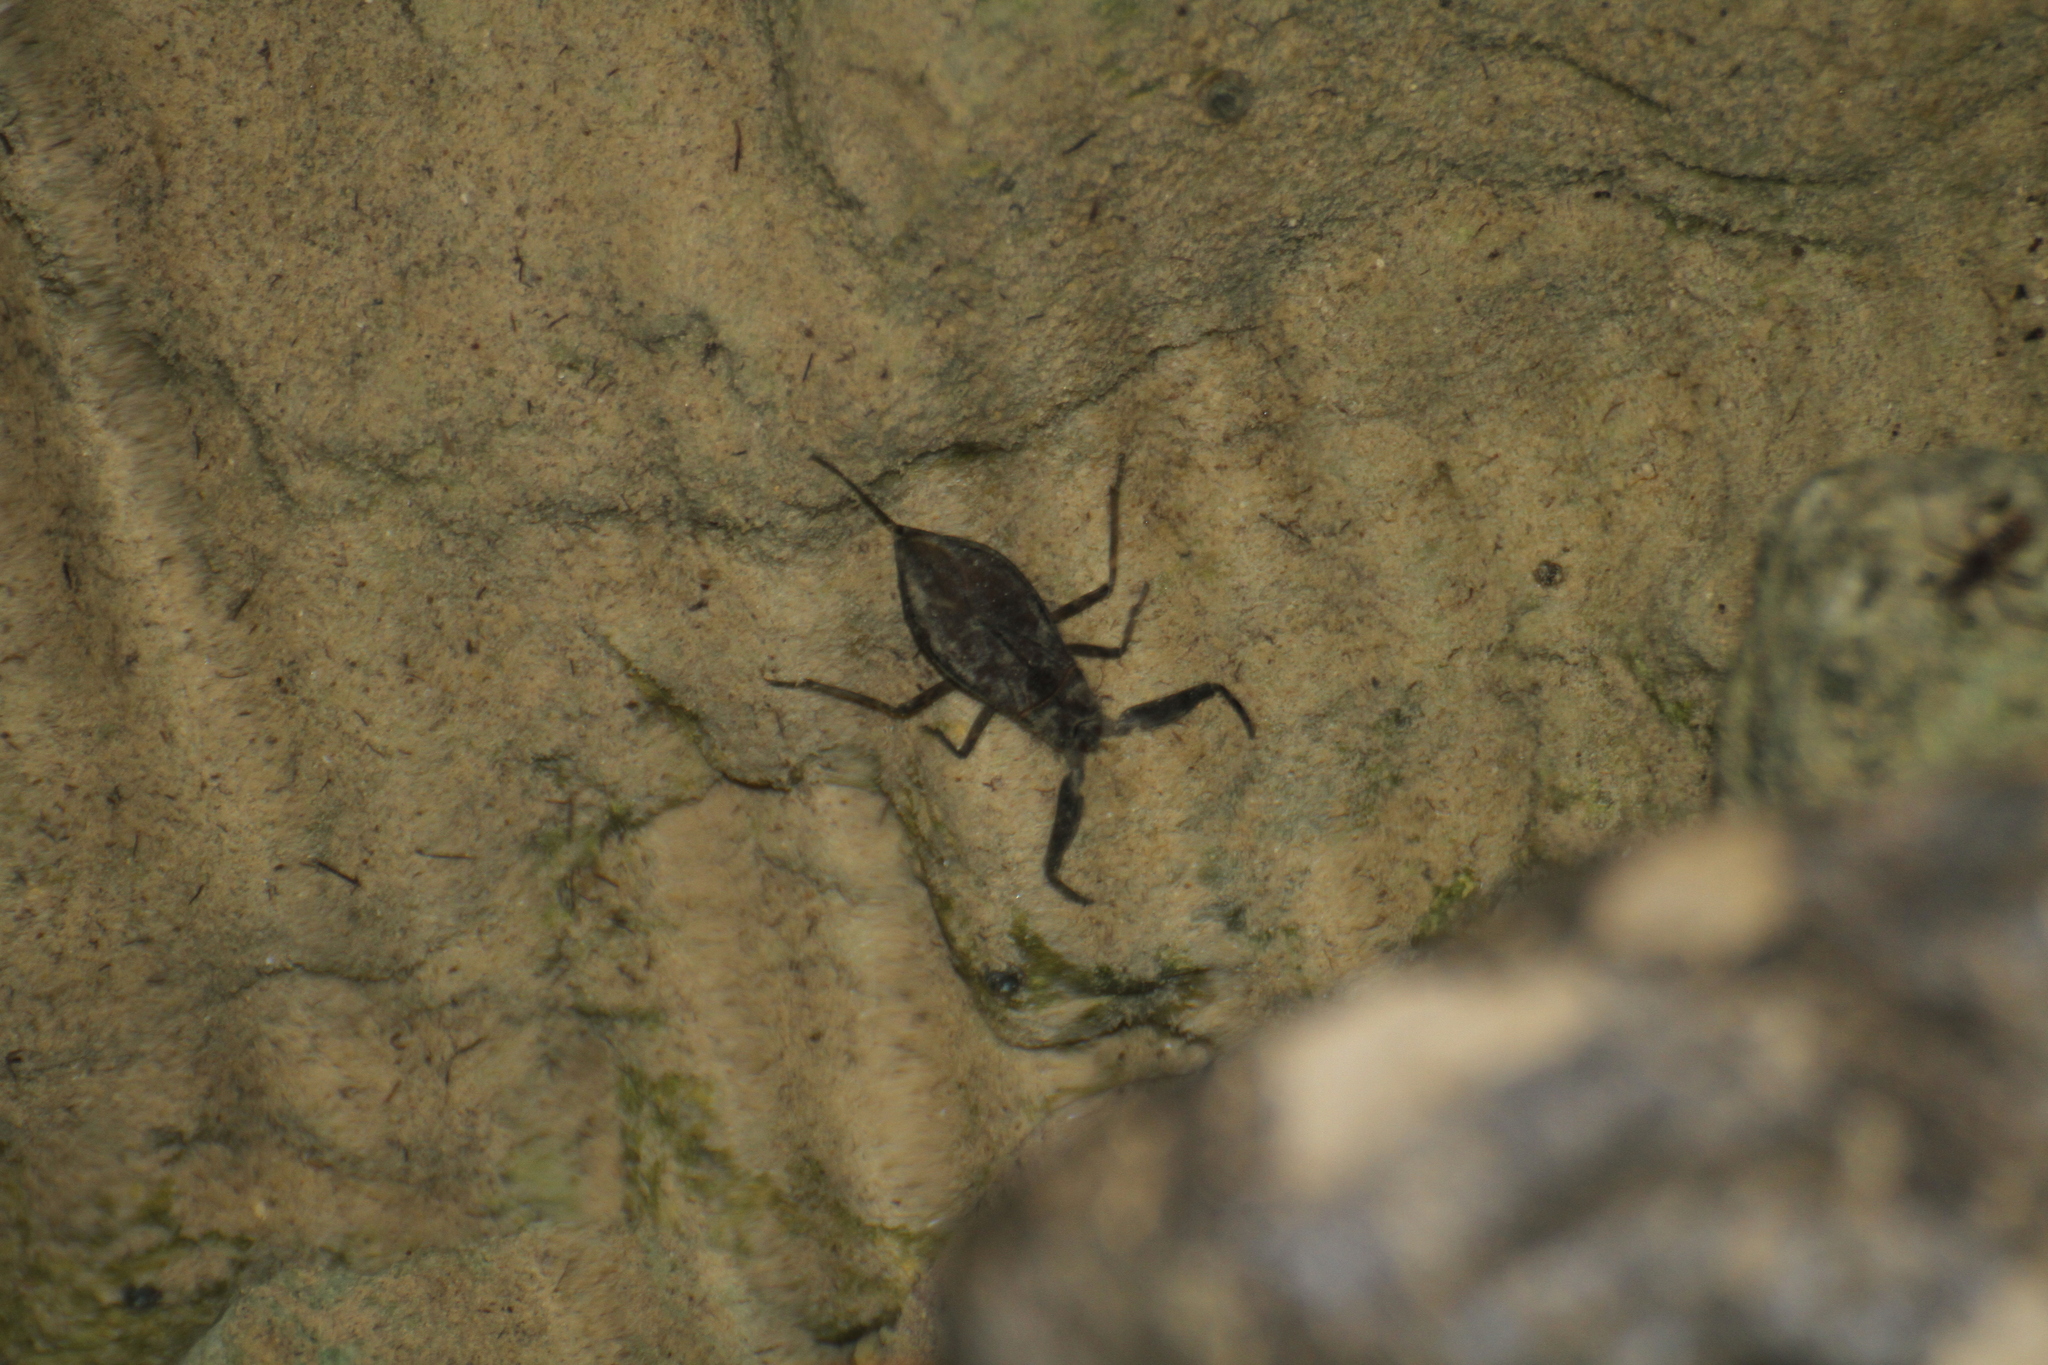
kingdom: Animalia
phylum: Arthropoda
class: Insecta
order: Hemiptera
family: Nepidae
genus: Nepa
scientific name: Nepa cinerea
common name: Water scorpion
